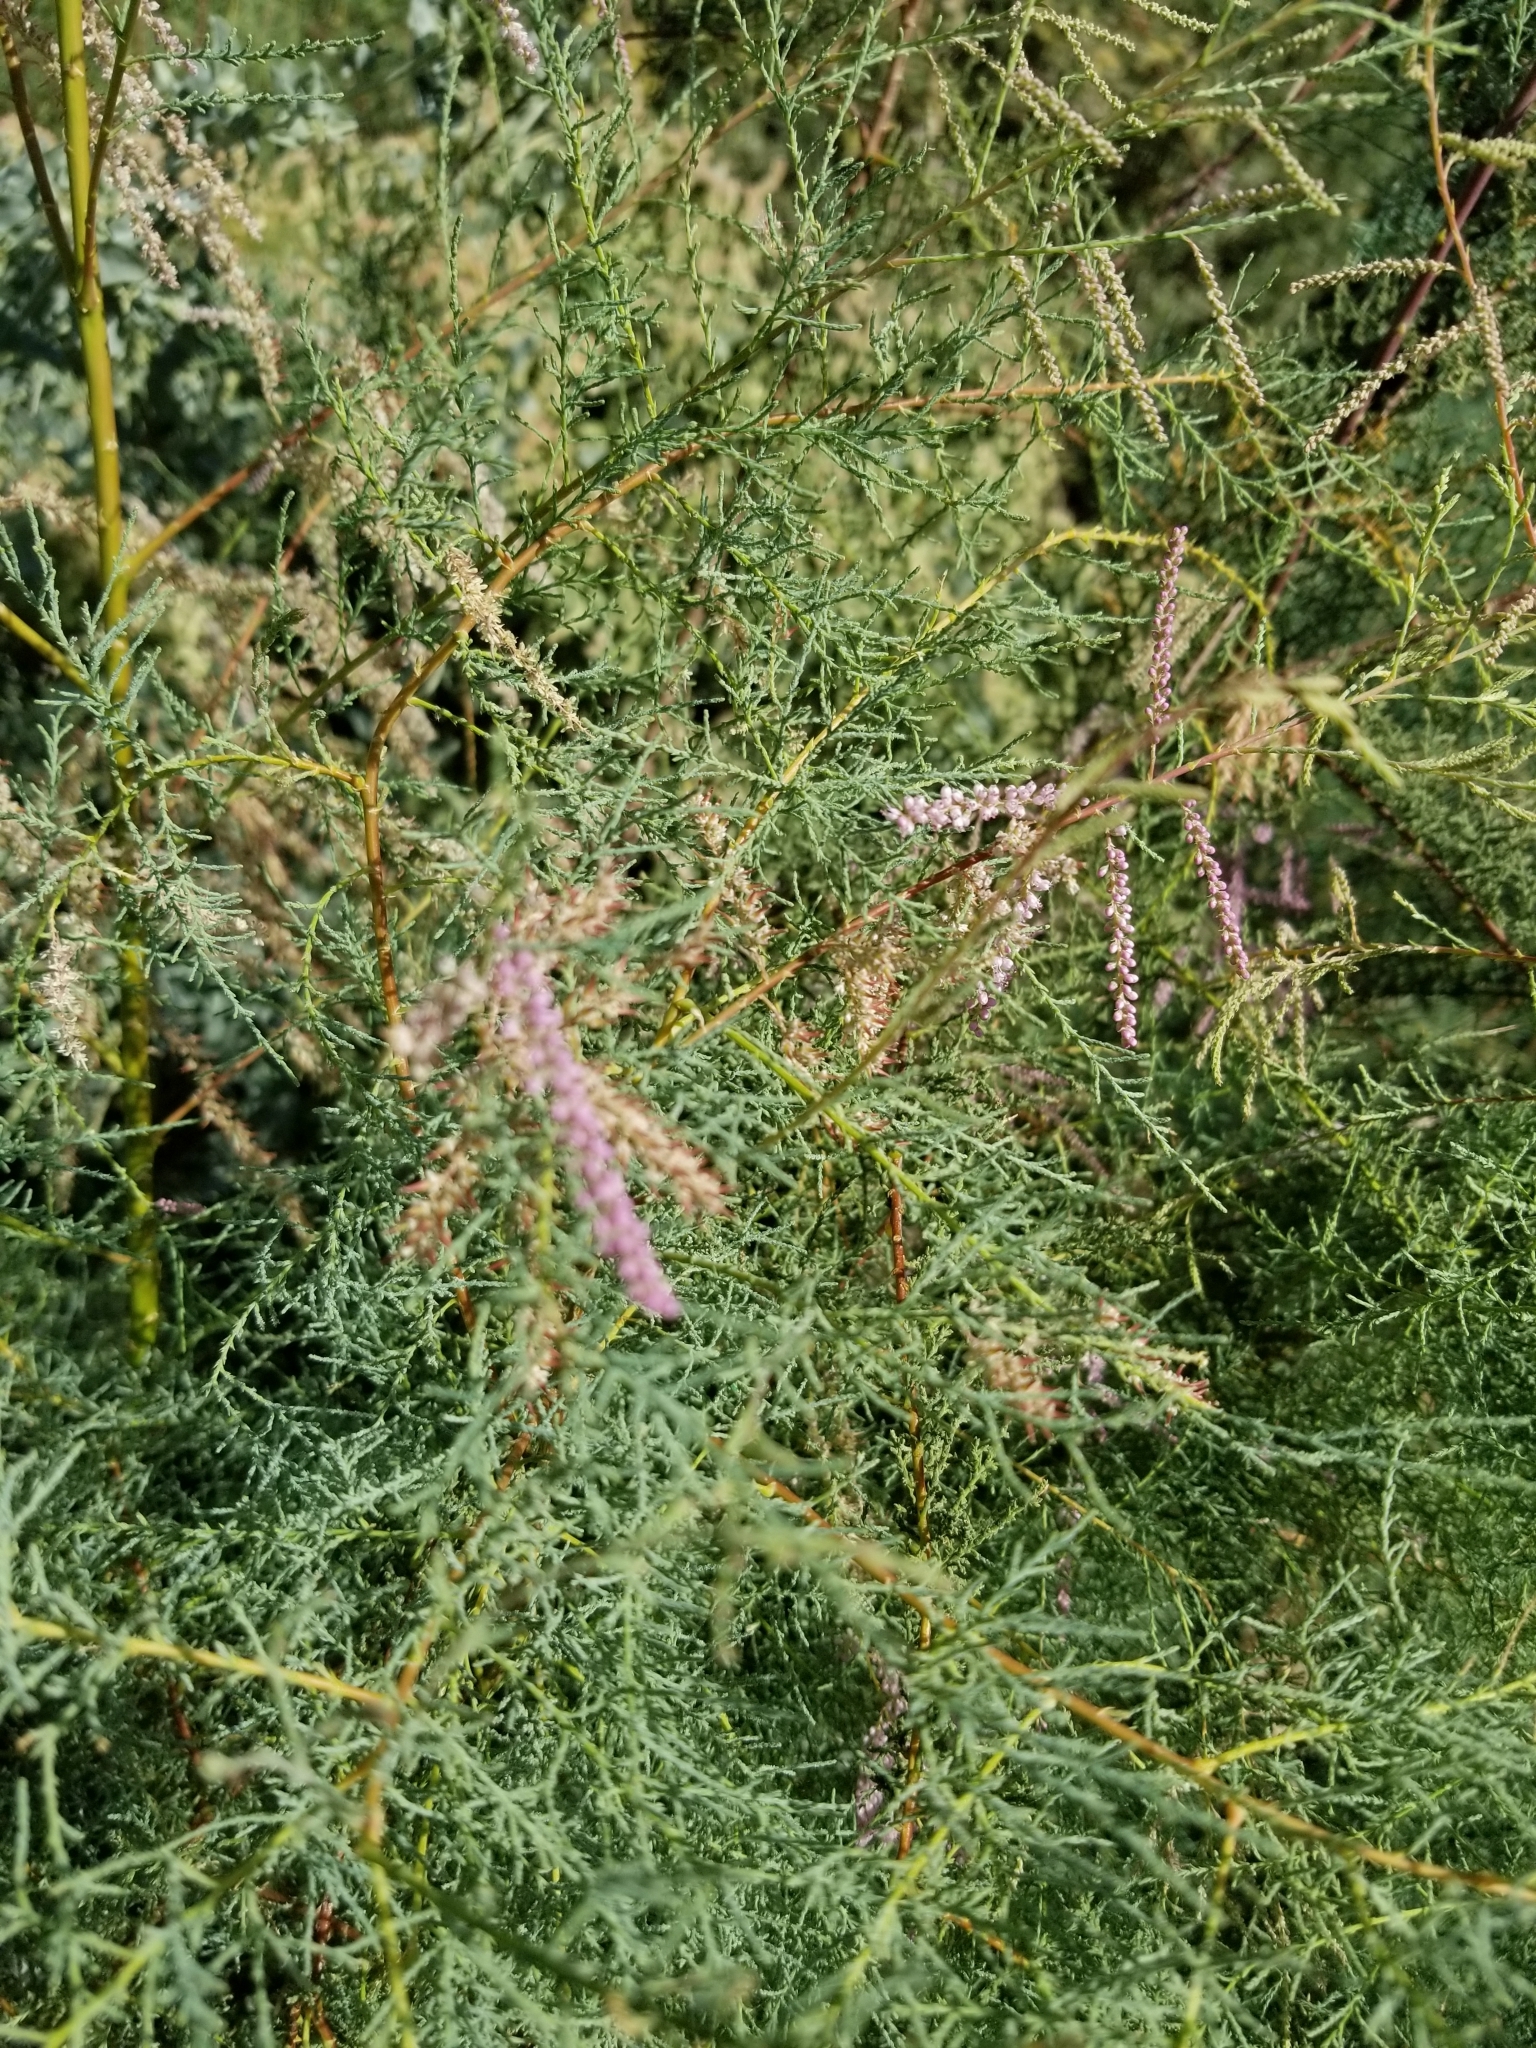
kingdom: Plantae
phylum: Tracheophyta
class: Magnoliopsida
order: Caryophyllales
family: Tamaricaceae
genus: Tamarix
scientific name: Tamarix ramosissima
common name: Pink tamarisk
